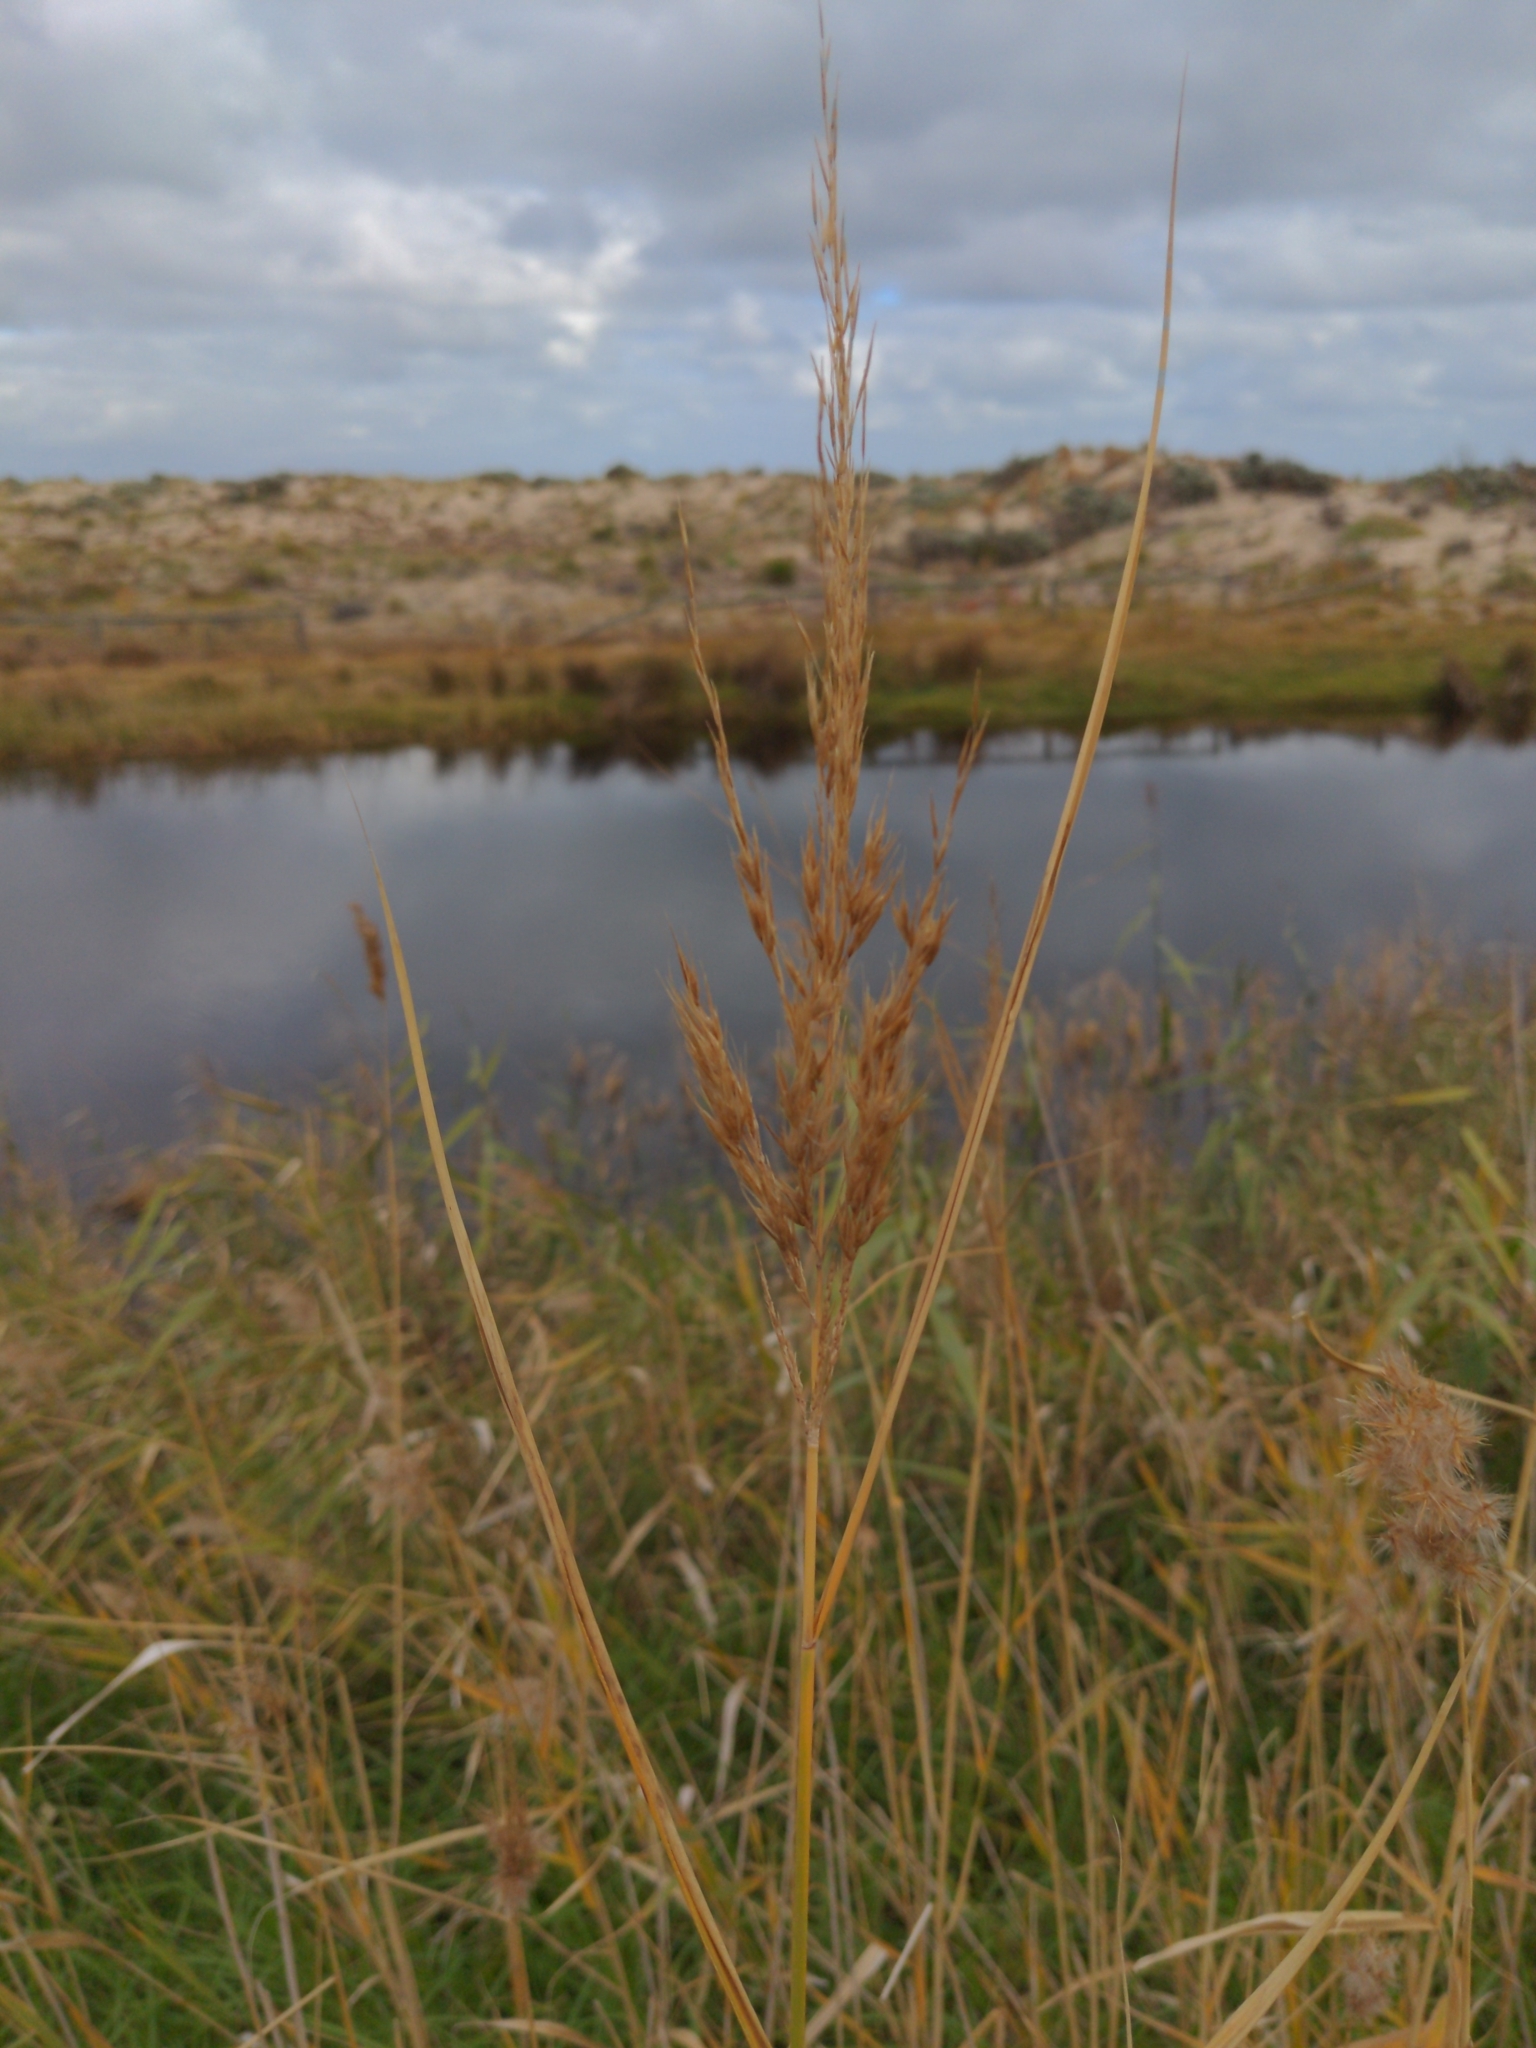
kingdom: Plantae
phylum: Tracheophyta
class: Liliopsida
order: Poales
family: Poaceae
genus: Phragmites
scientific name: Phragmites australis
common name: Common reed
